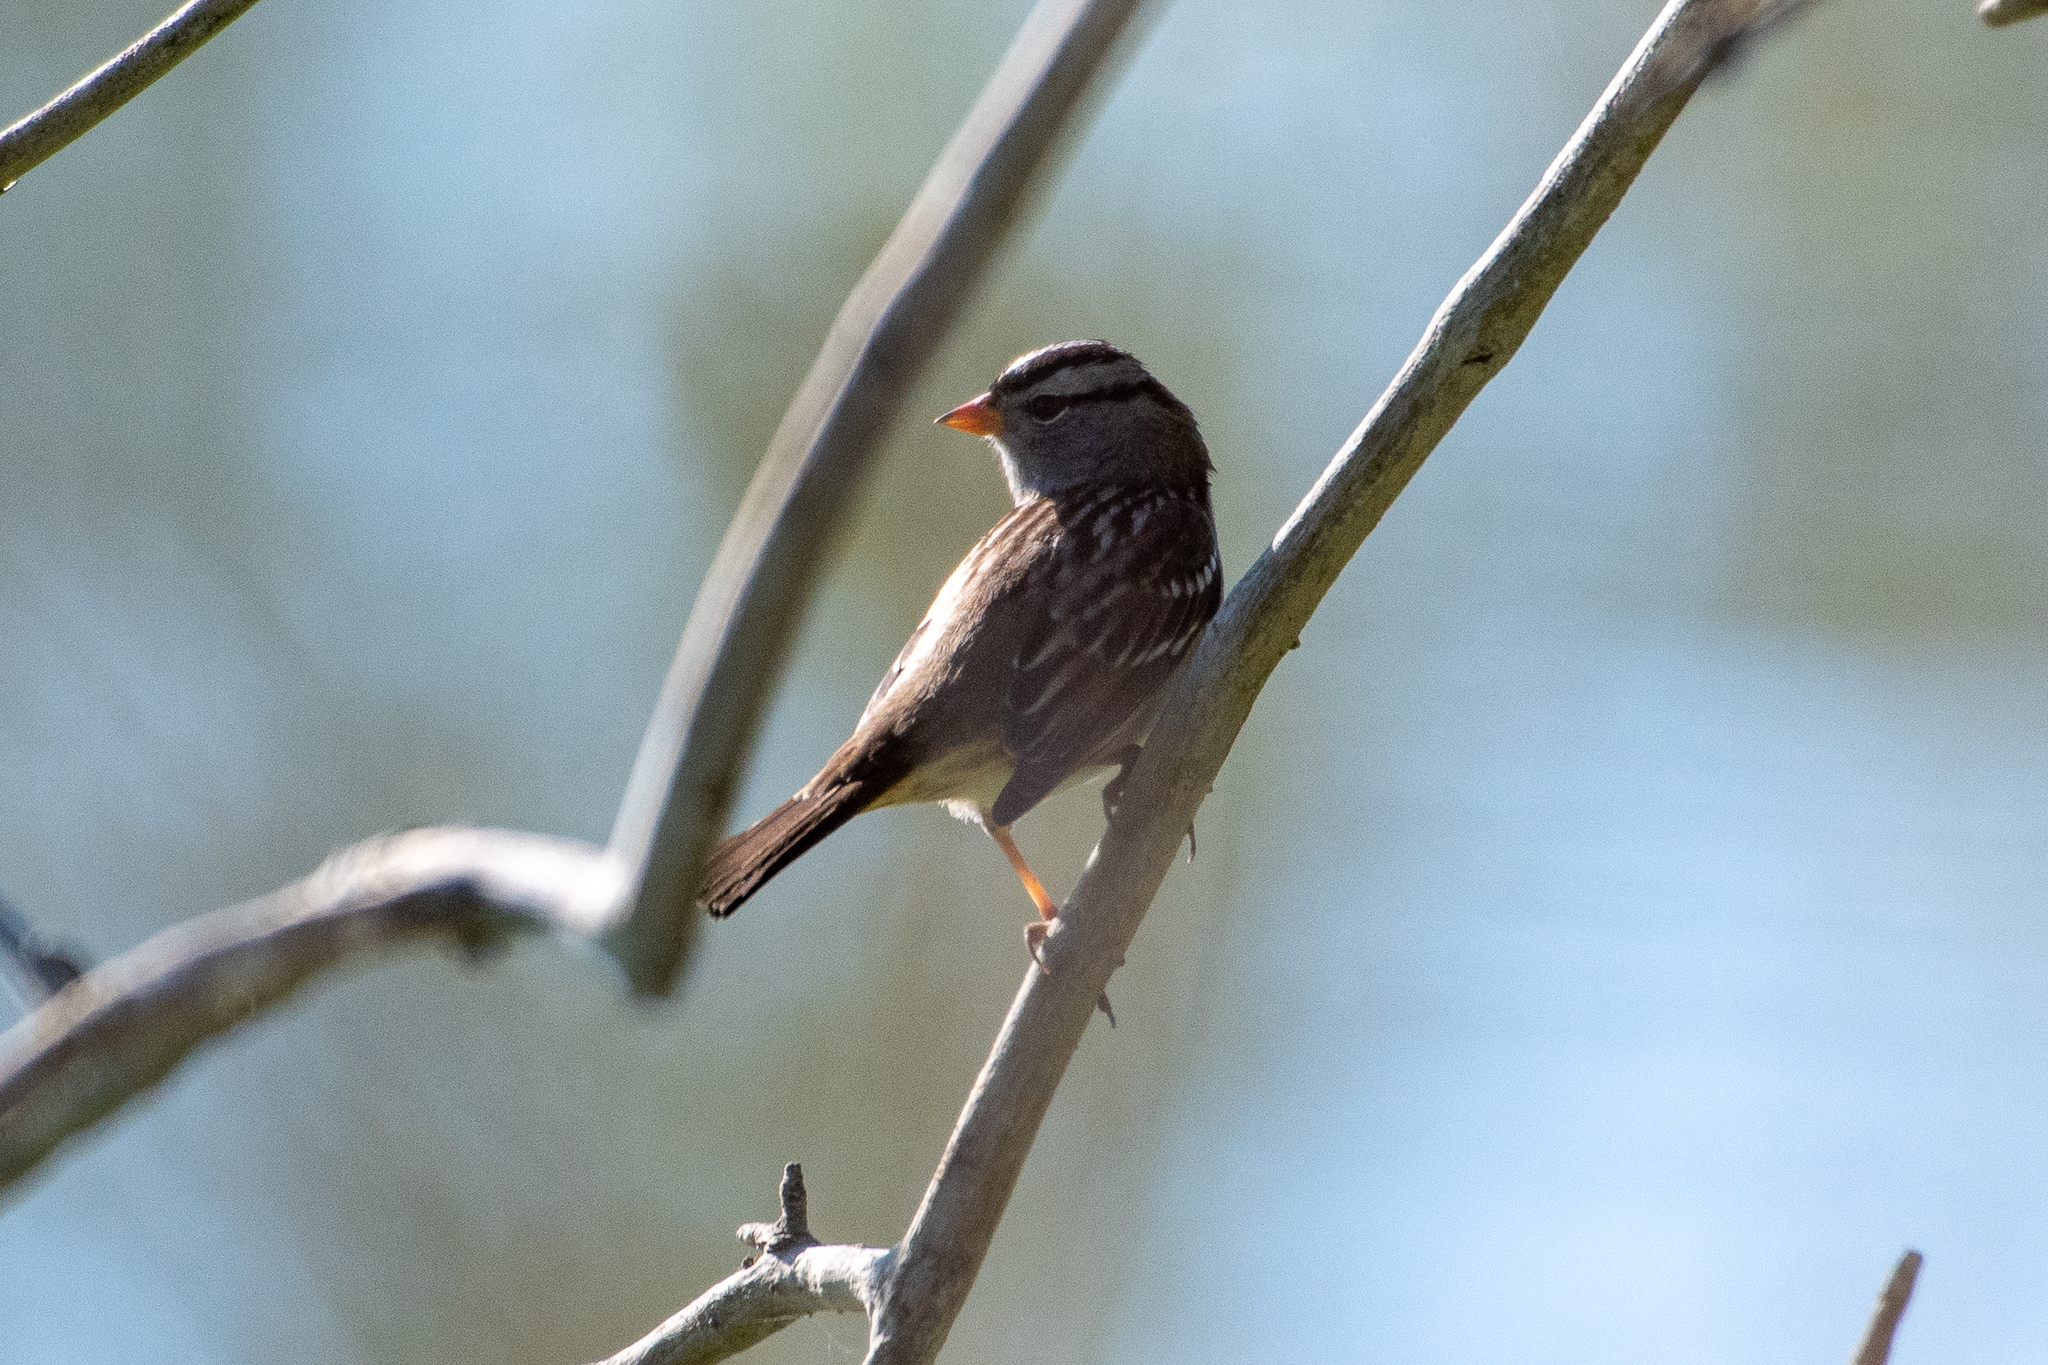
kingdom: Animalia
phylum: Chordata
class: Aves
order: Passeriformes
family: Passerellidae
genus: Zonotrichia
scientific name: Zonotrichia leucophrys
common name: White-crowned sparrow
